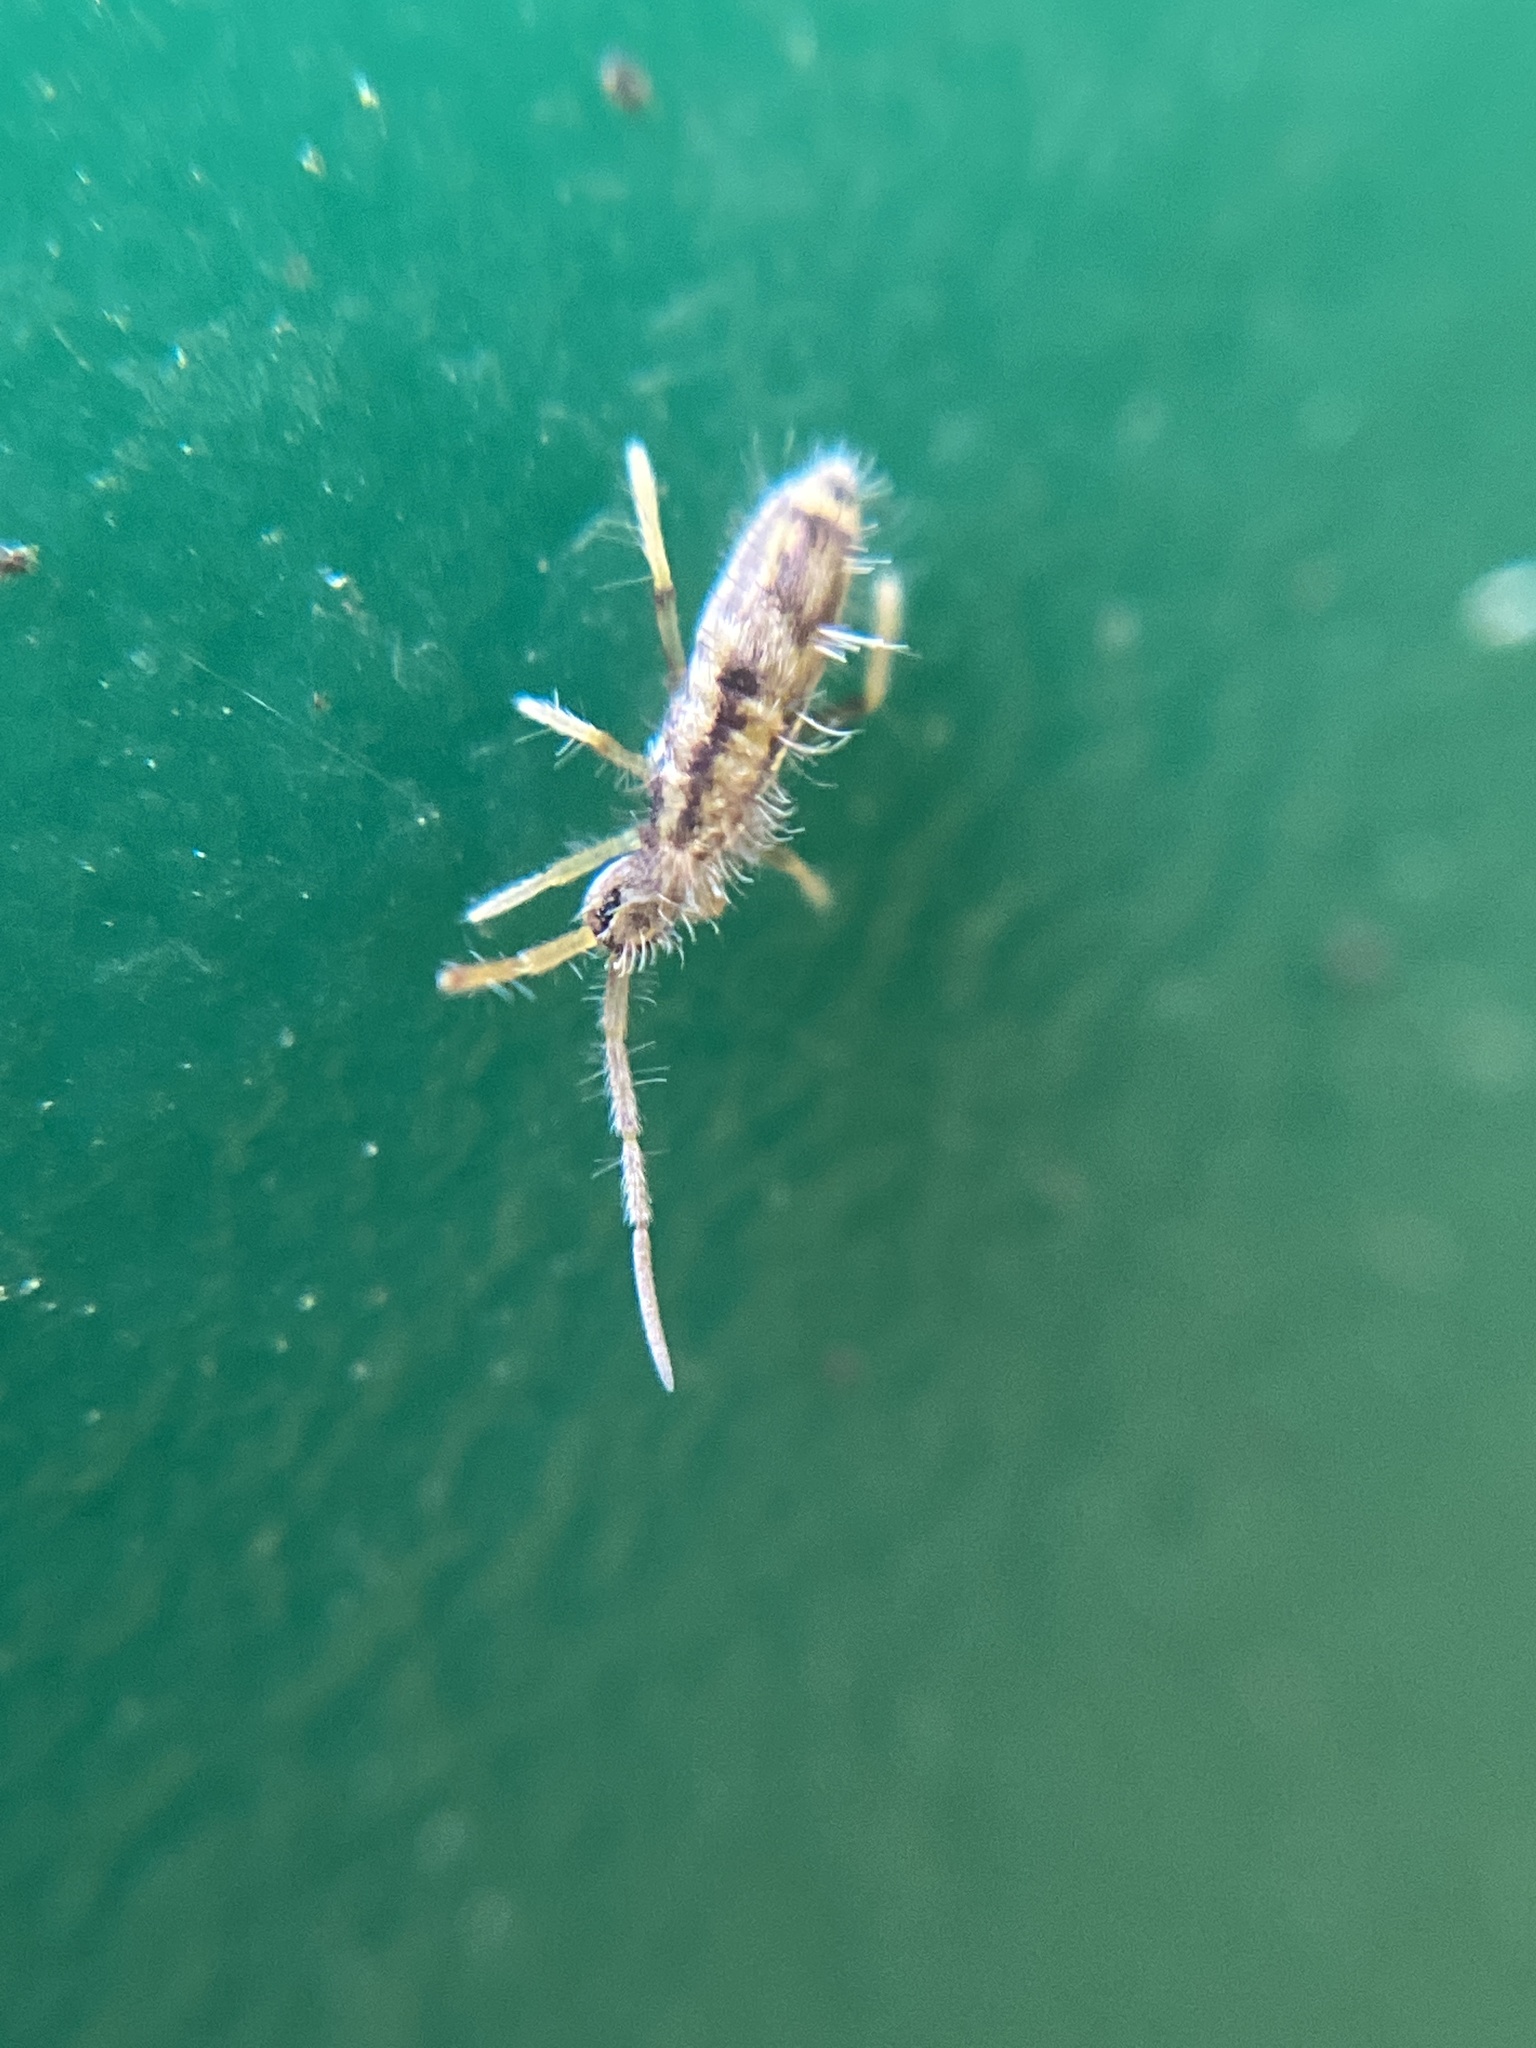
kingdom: Animalia
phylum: Arthropoda
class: Collembola
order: Entomobryomorpha
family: Entomobryidae
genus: Entomobrya
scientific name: Entomobrya muscorum
